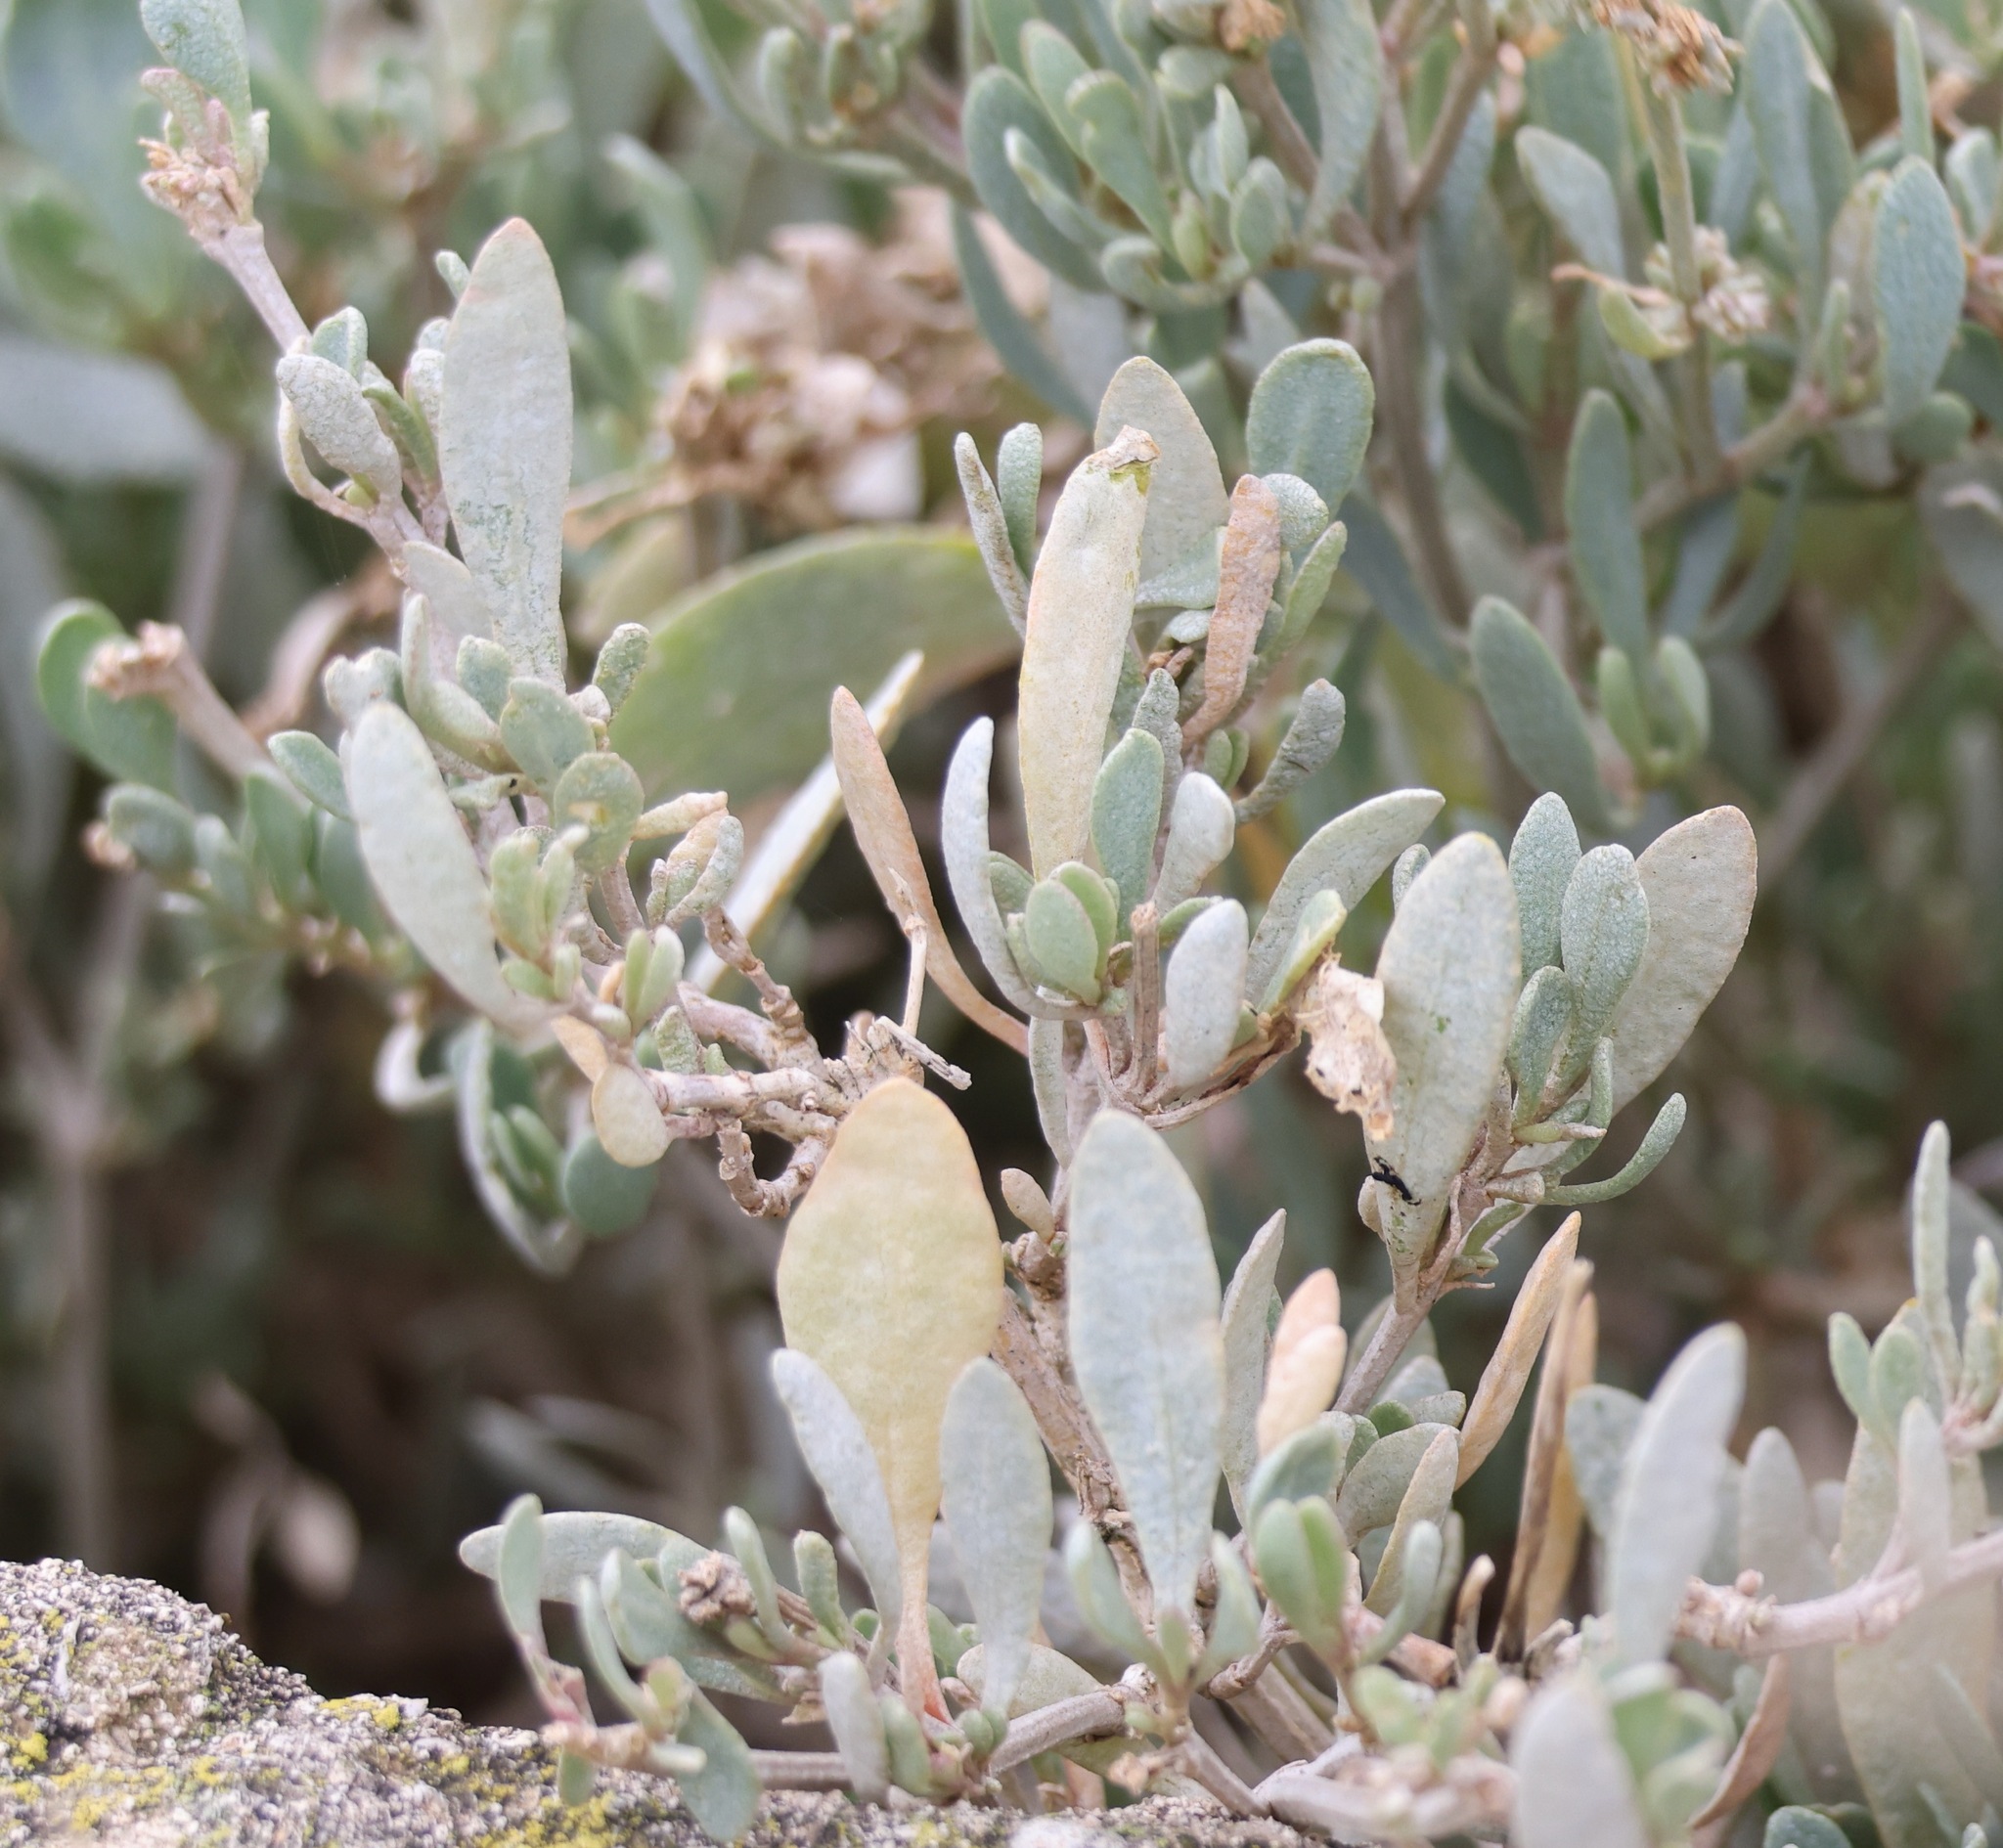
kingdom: Plantae
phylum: Tracheophyta
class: Magnoliopsida
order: Caryophyllales
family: Amaranthaceae
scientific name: Amaranthaceae
